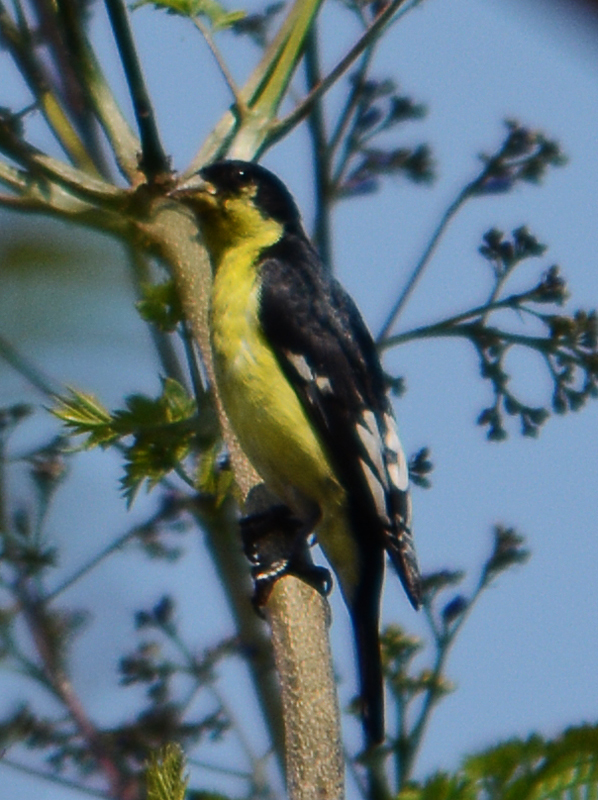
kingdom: Animalia
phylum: Chordata
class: Aves
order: Passeriformes
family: Fringillidae
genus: Spinus
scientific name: Spinus psaltria
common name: Lesser goldfinch
